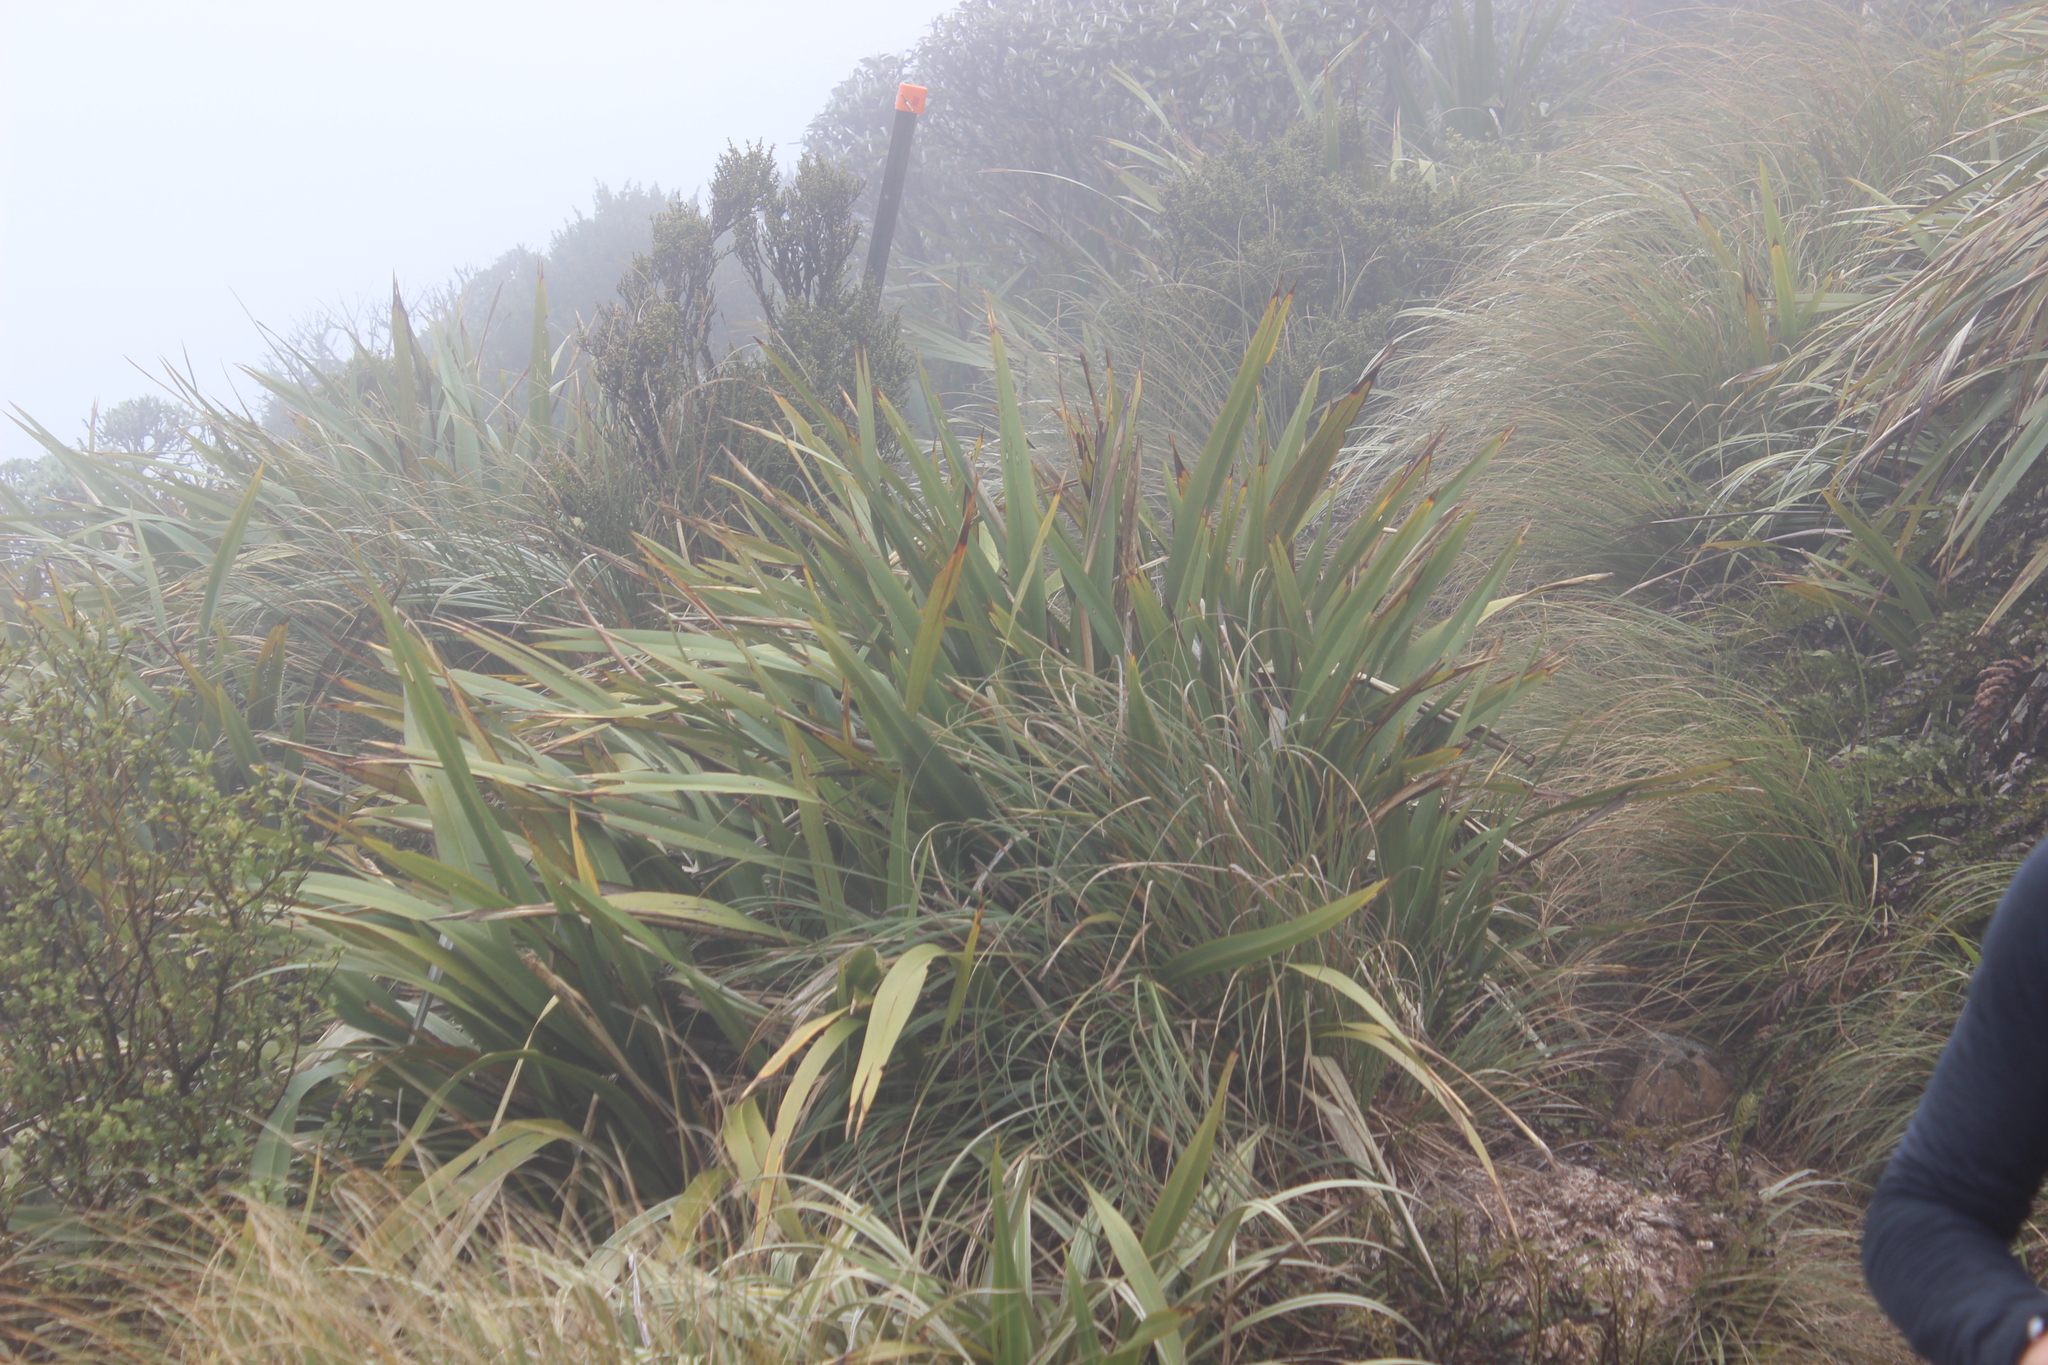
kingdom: Plantae
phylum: Tracheophyta
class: Liliopsida
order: Asparagales
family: Asphodelaceae
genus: Phormium
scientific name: Phormium colensoi
